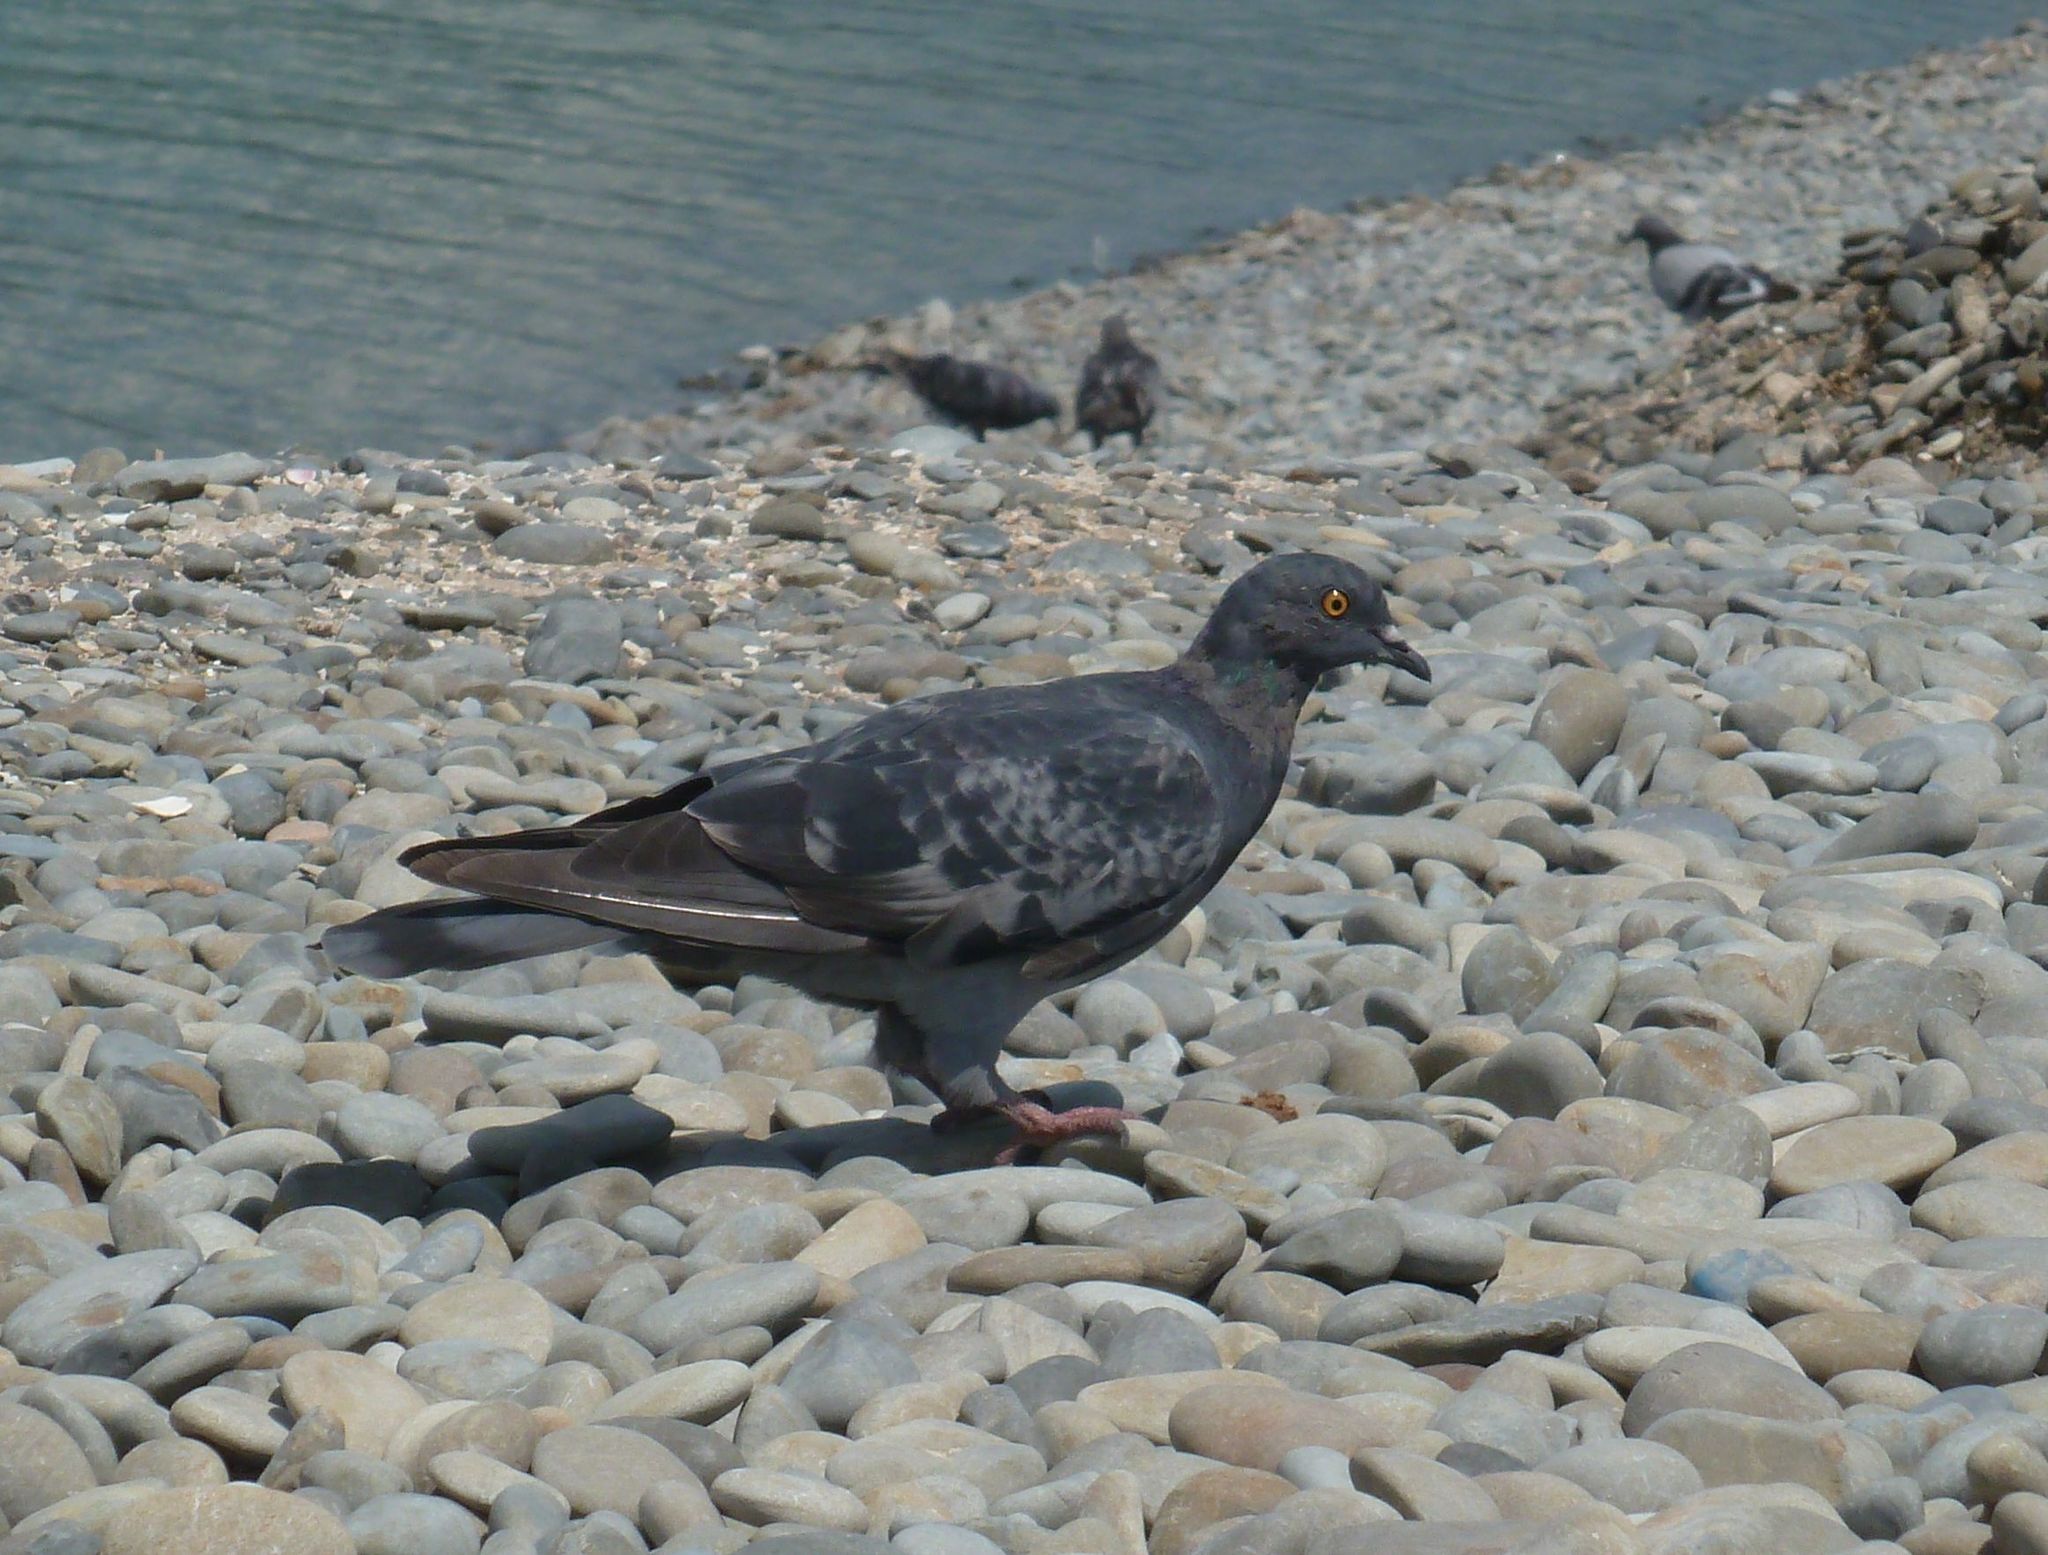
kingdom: Animalia
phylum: Chordata
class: Aves
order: Columbiformes
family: Columbidae
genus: Columba
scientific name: Columba livia
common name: Rock pigeon
